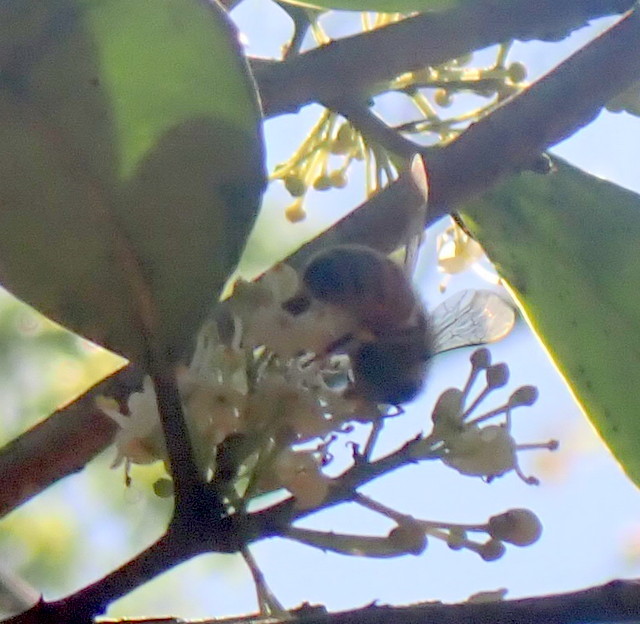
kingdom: Animalia
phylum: Arthropoda
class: Insecta
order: Hymenoptera
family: Apidae
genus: Apis
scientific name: Apis mellifera
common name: Honey bee
